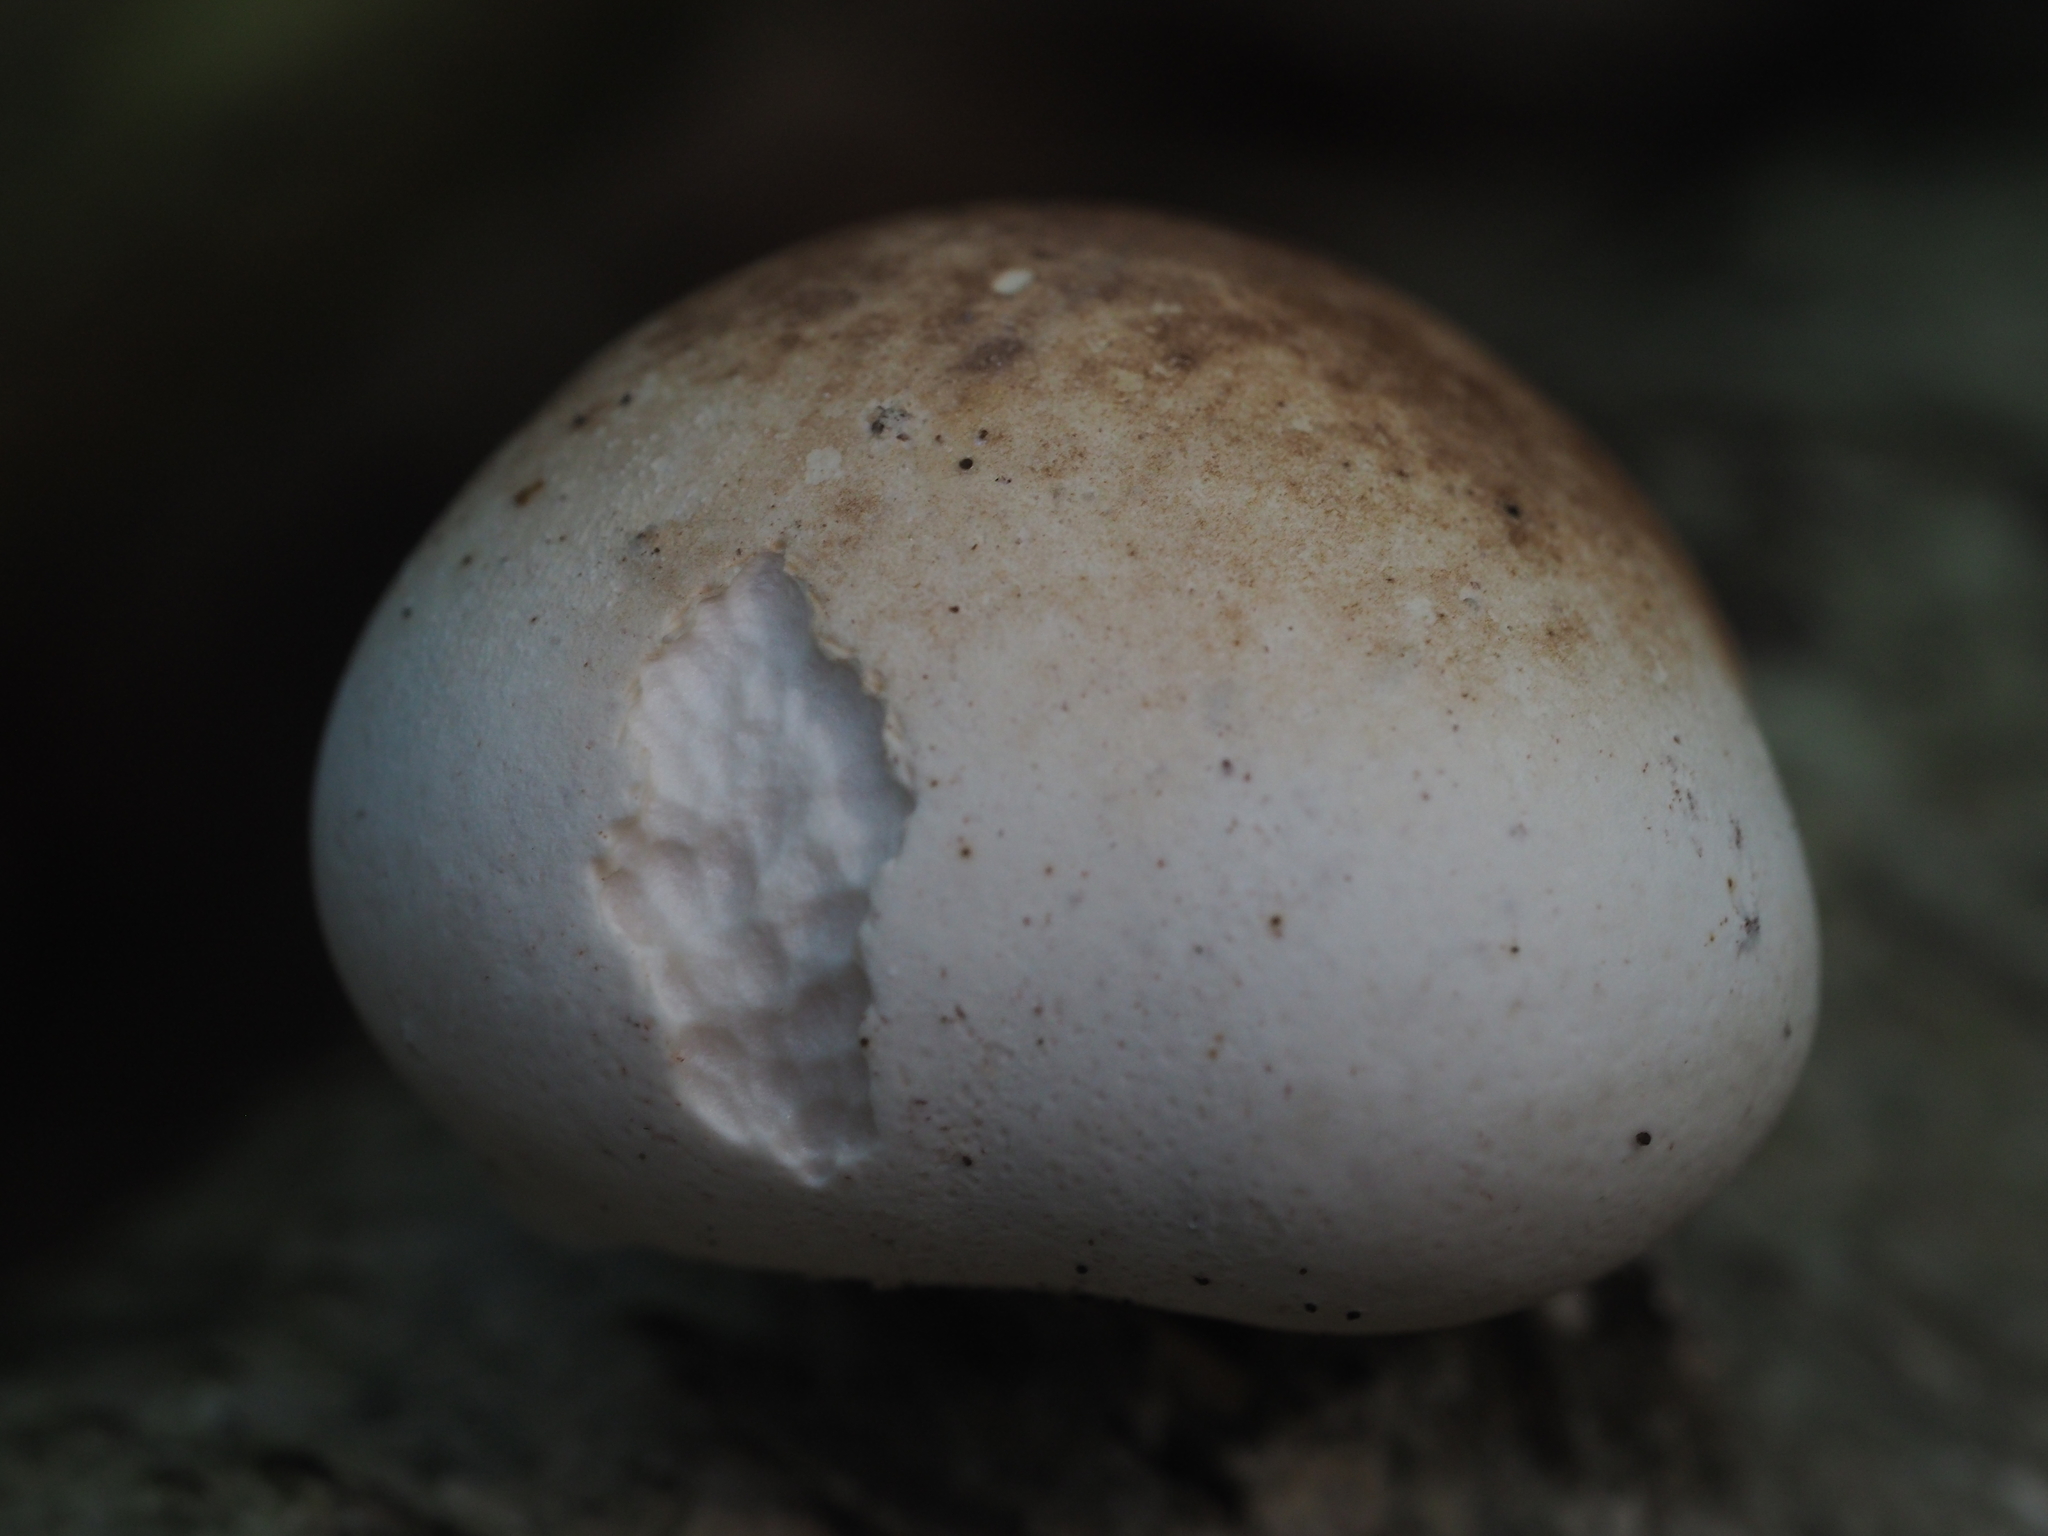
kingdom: Fungi
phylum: Basidiomycota
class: Agaricomycetes
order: Polyporales
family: Fomitopsidaceae
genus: Fomitopsis
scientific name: Fomitopsis betulina
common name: Birch polypore
